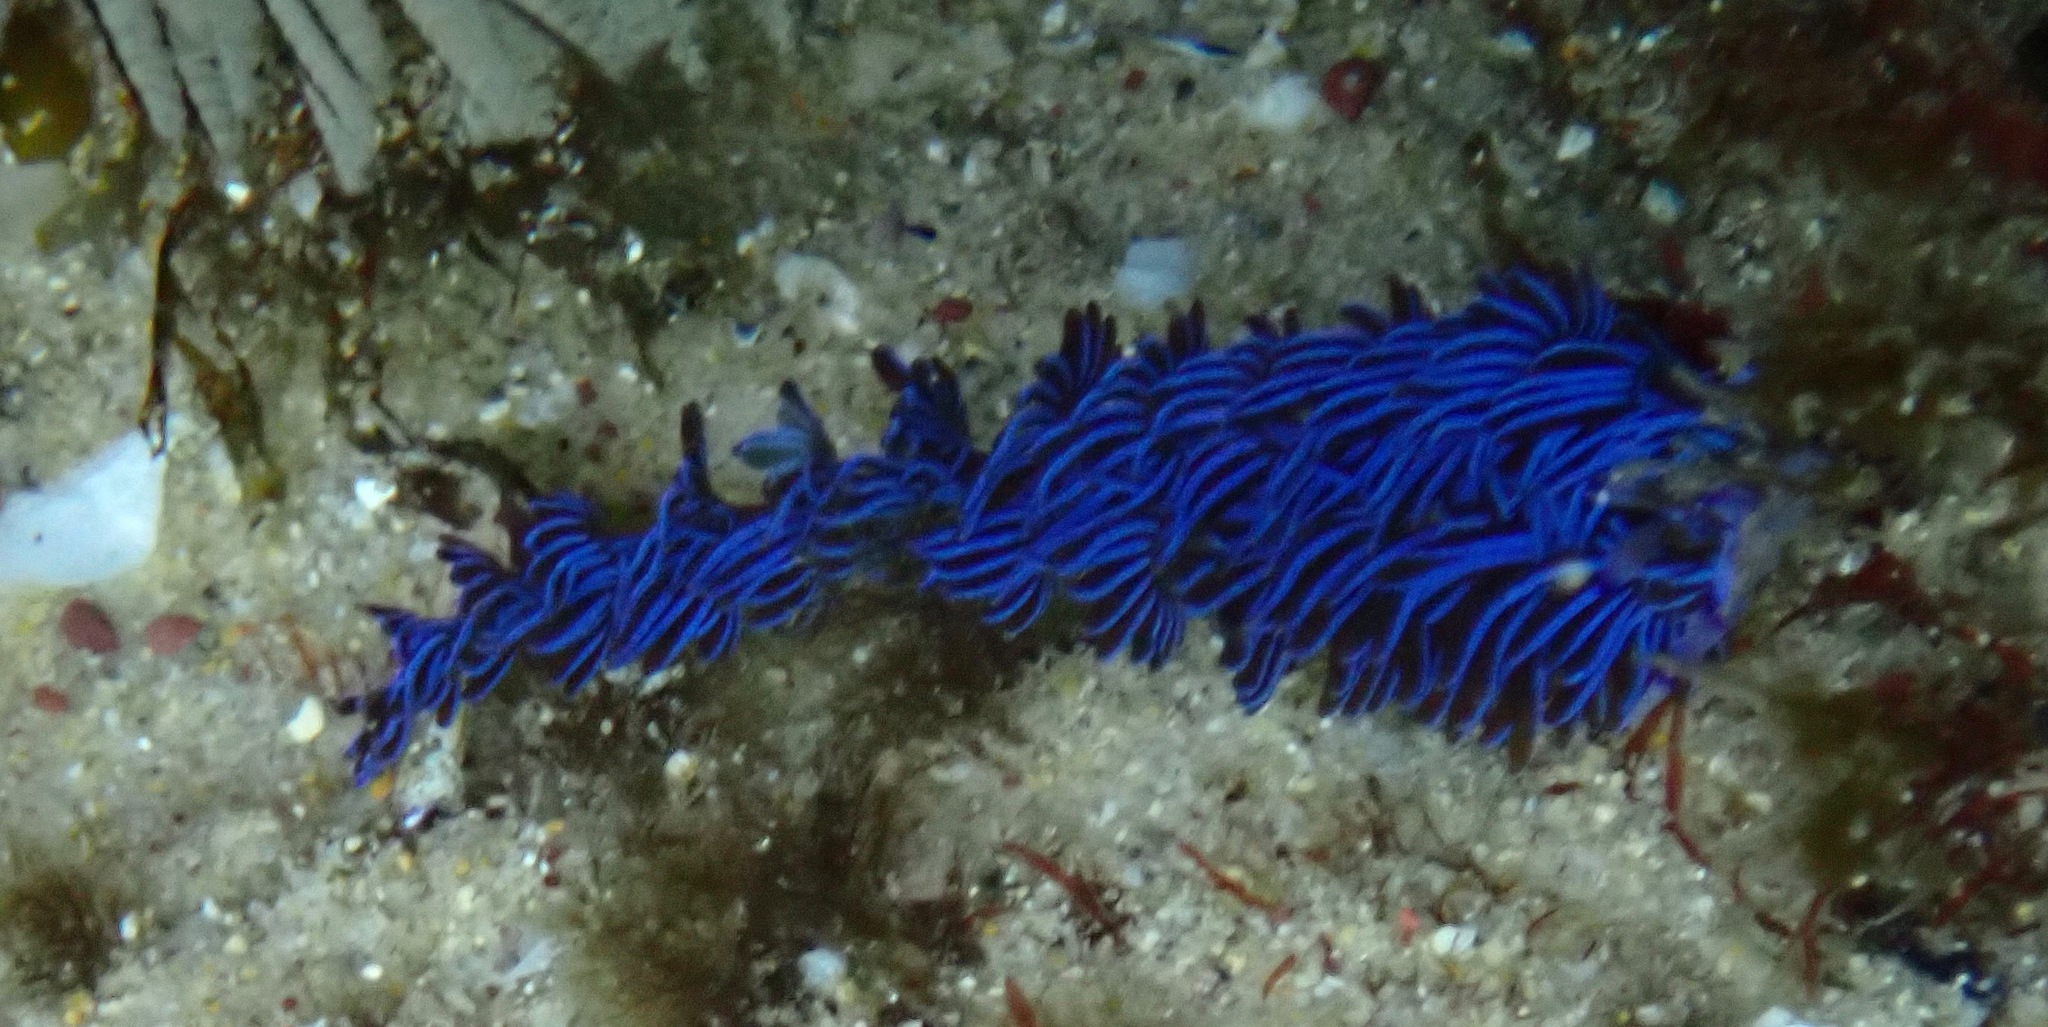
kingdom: Animalia
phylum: Mollusca
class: Gastropoda
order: Nudibranchia
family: Facelinidae
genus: Pteraeolidia
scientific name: Pteraeolidia ianthina
